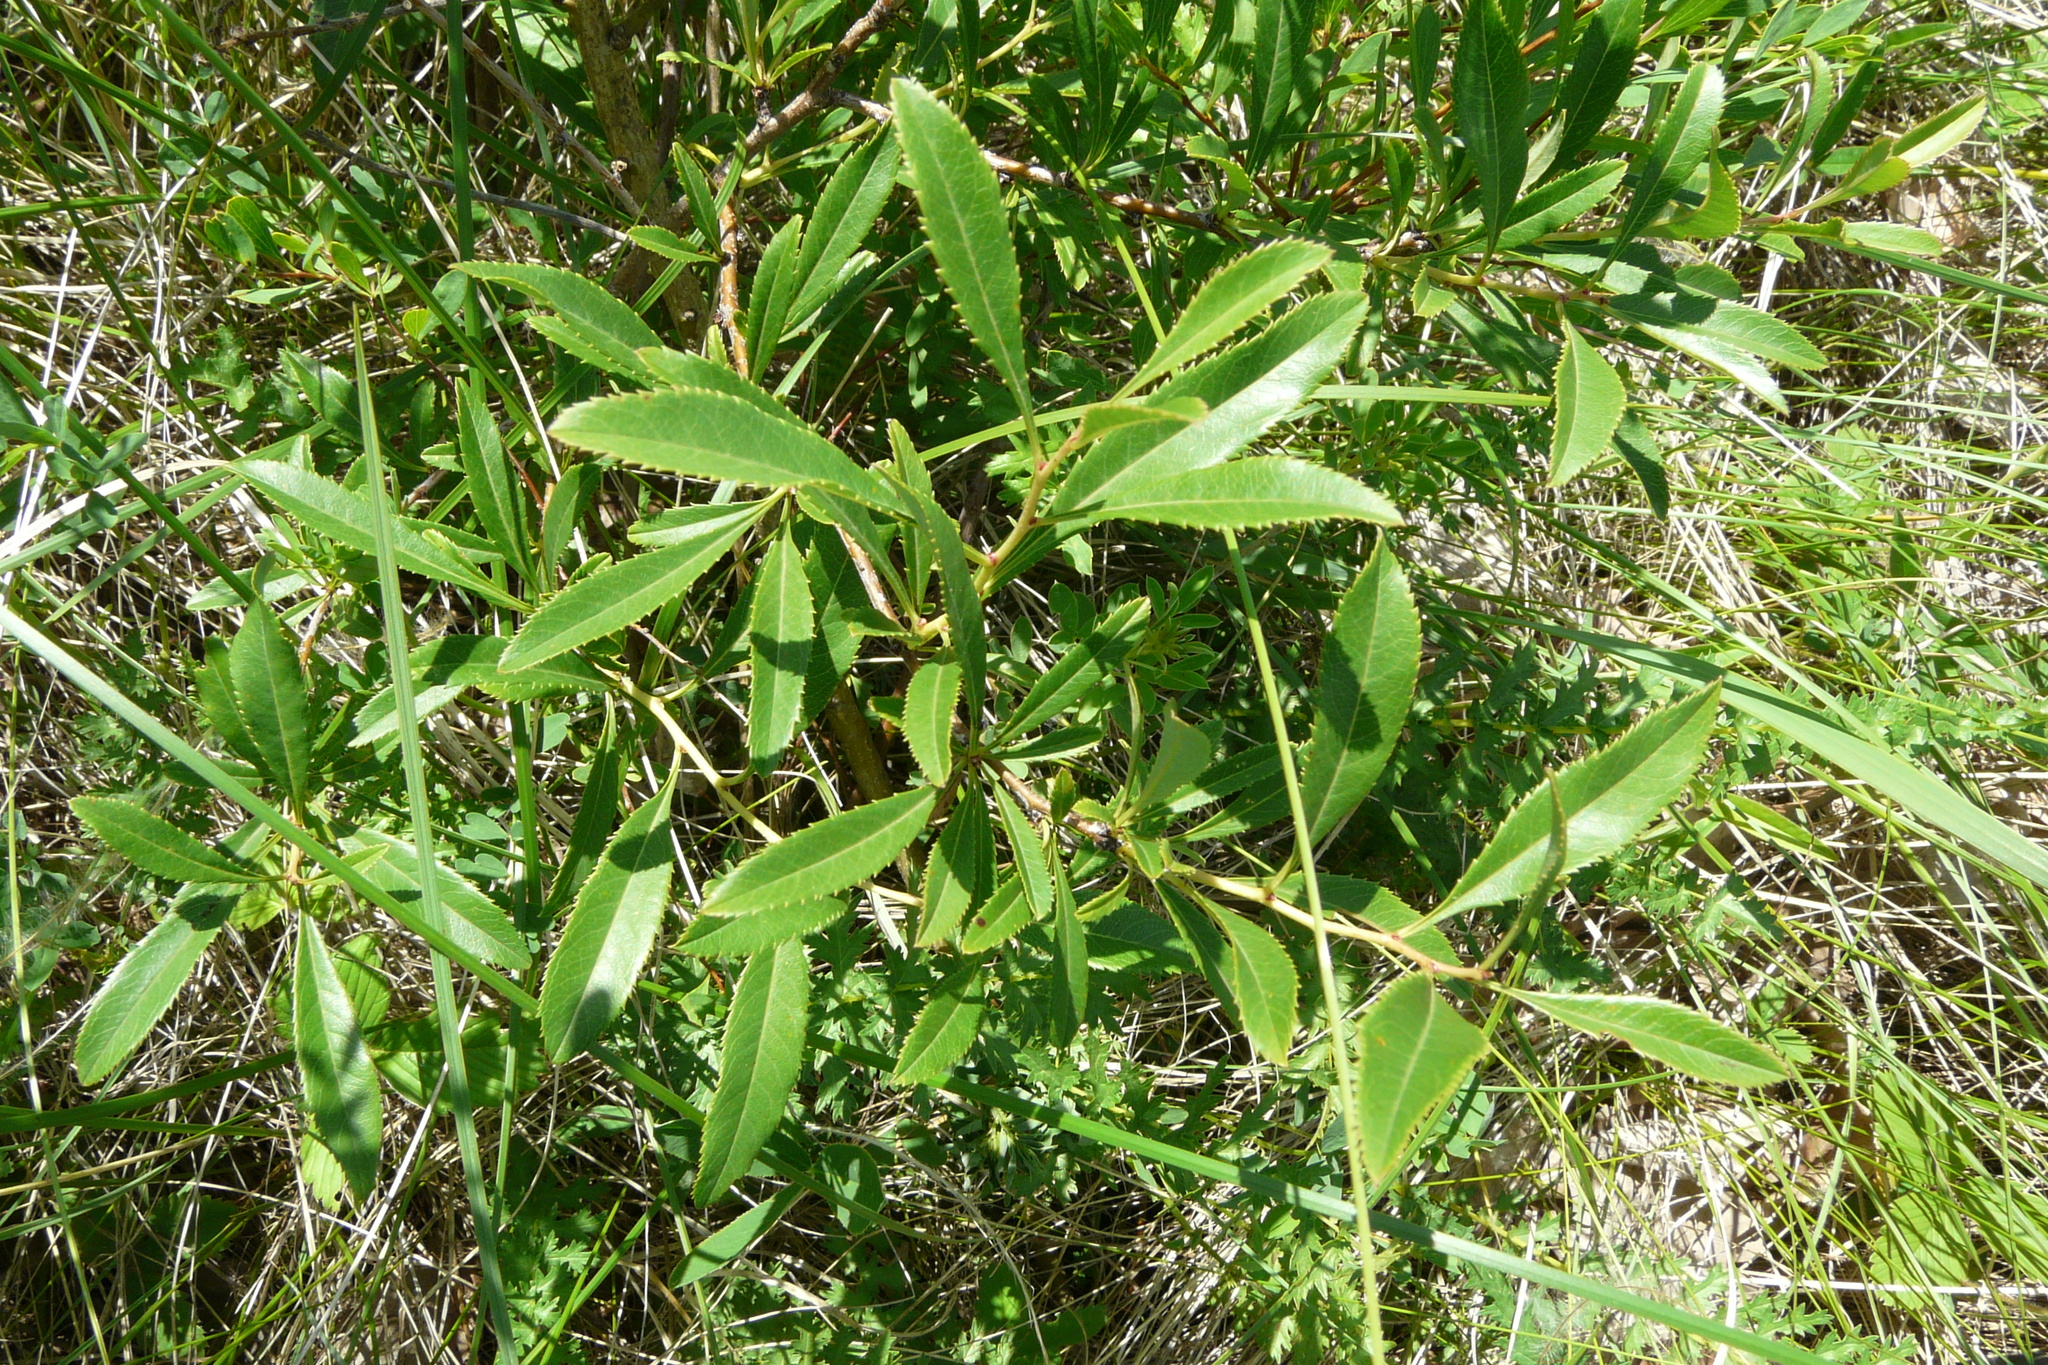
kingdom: Plantae
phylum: Tracheophyta
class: Magnoliopsida
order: Rosales
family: Rosaceae
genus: Prunus
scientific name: Prunus tenella
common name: Dwarf russian almond
